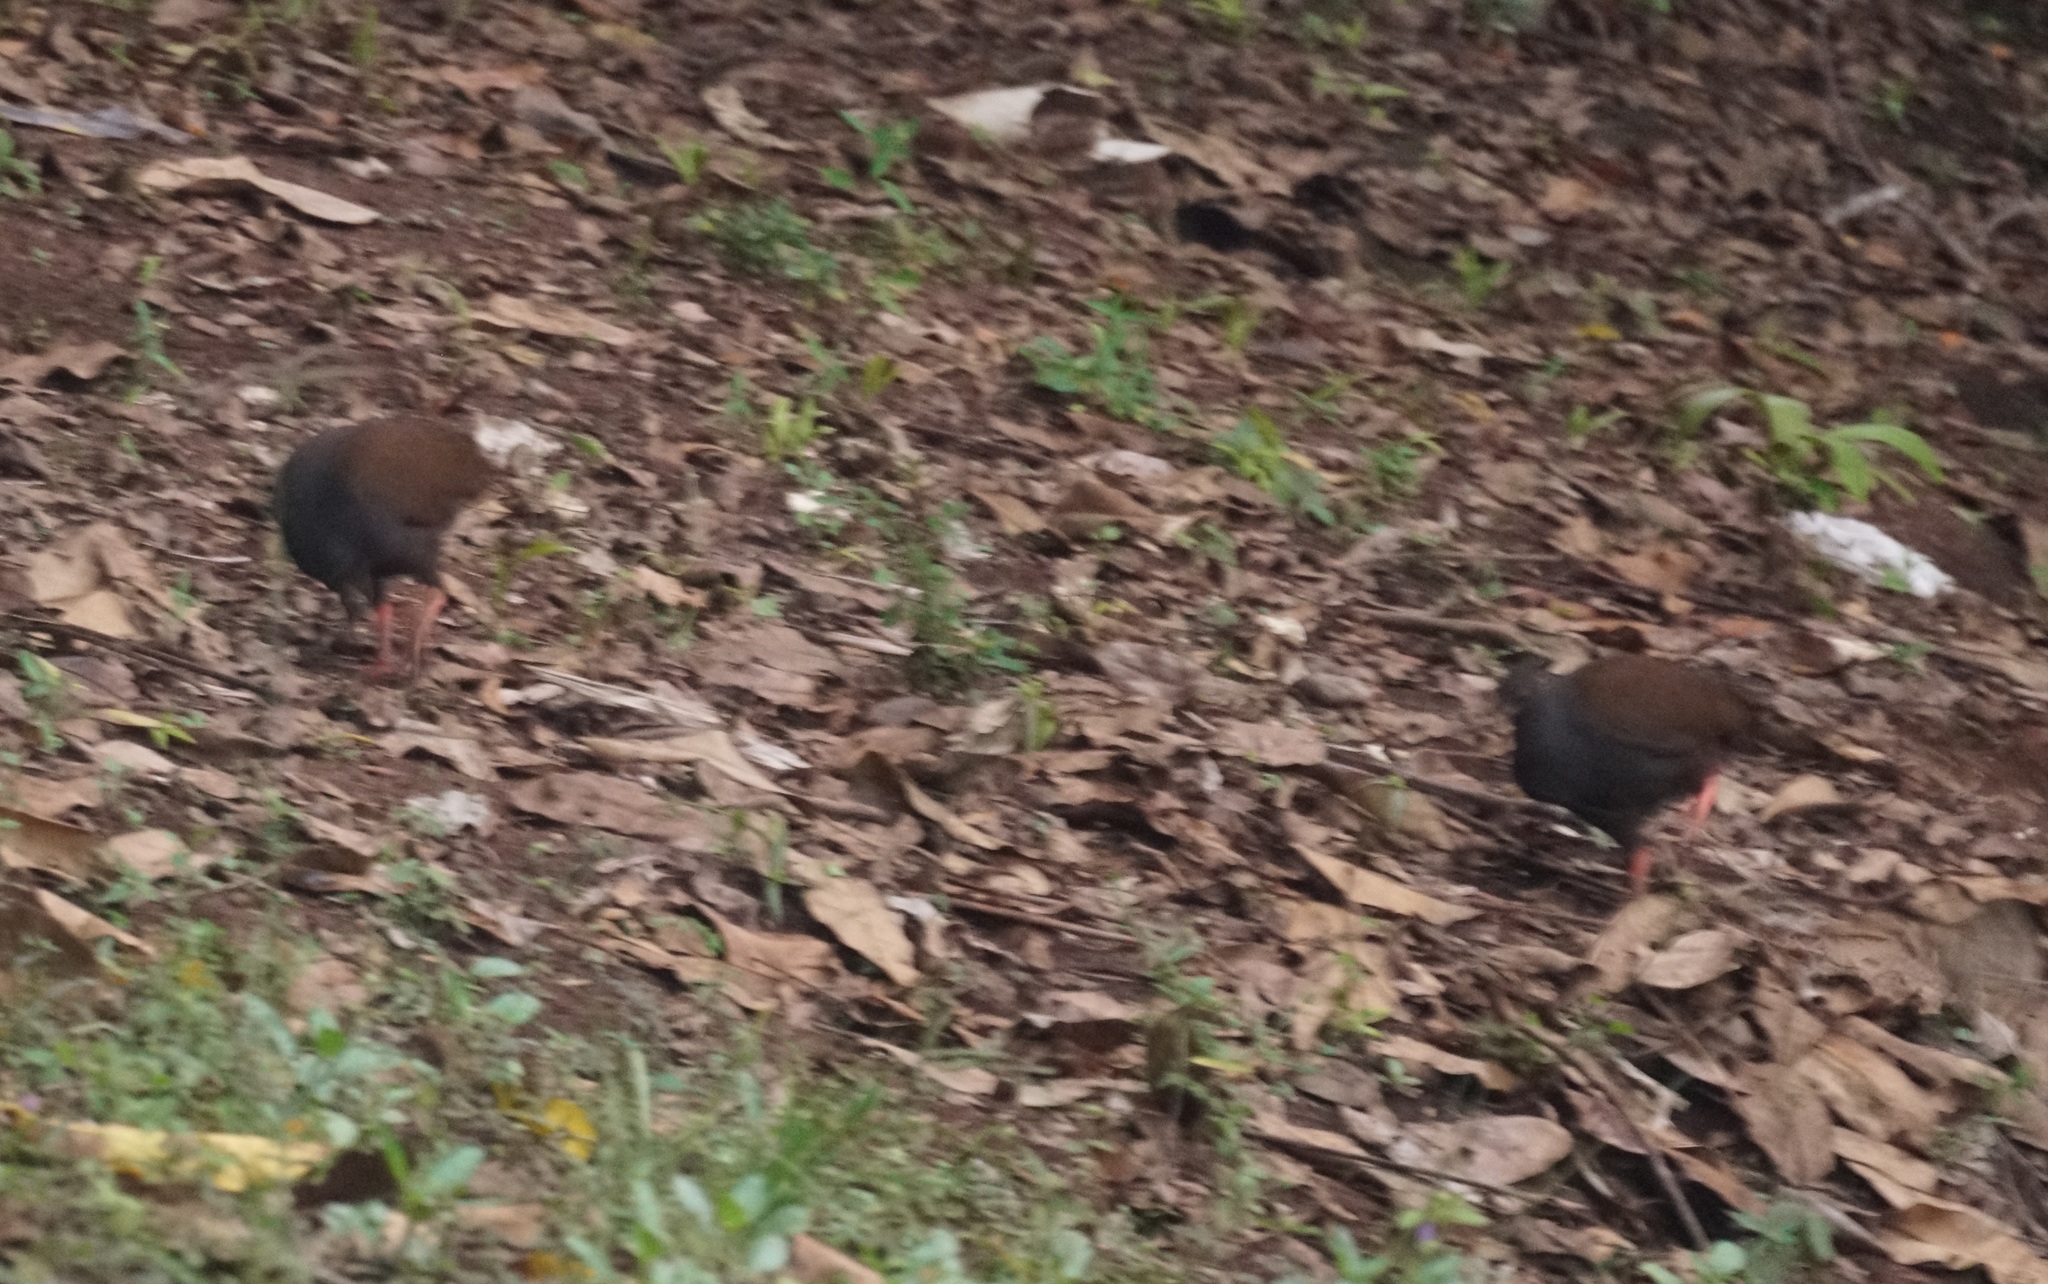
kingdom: Animalia
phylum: Chordata
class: Aves
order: Galliformes
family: Megapodiidae
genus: Megapodius
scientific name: Megapodius reinwardt
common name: Orange-footed scrubfowl
